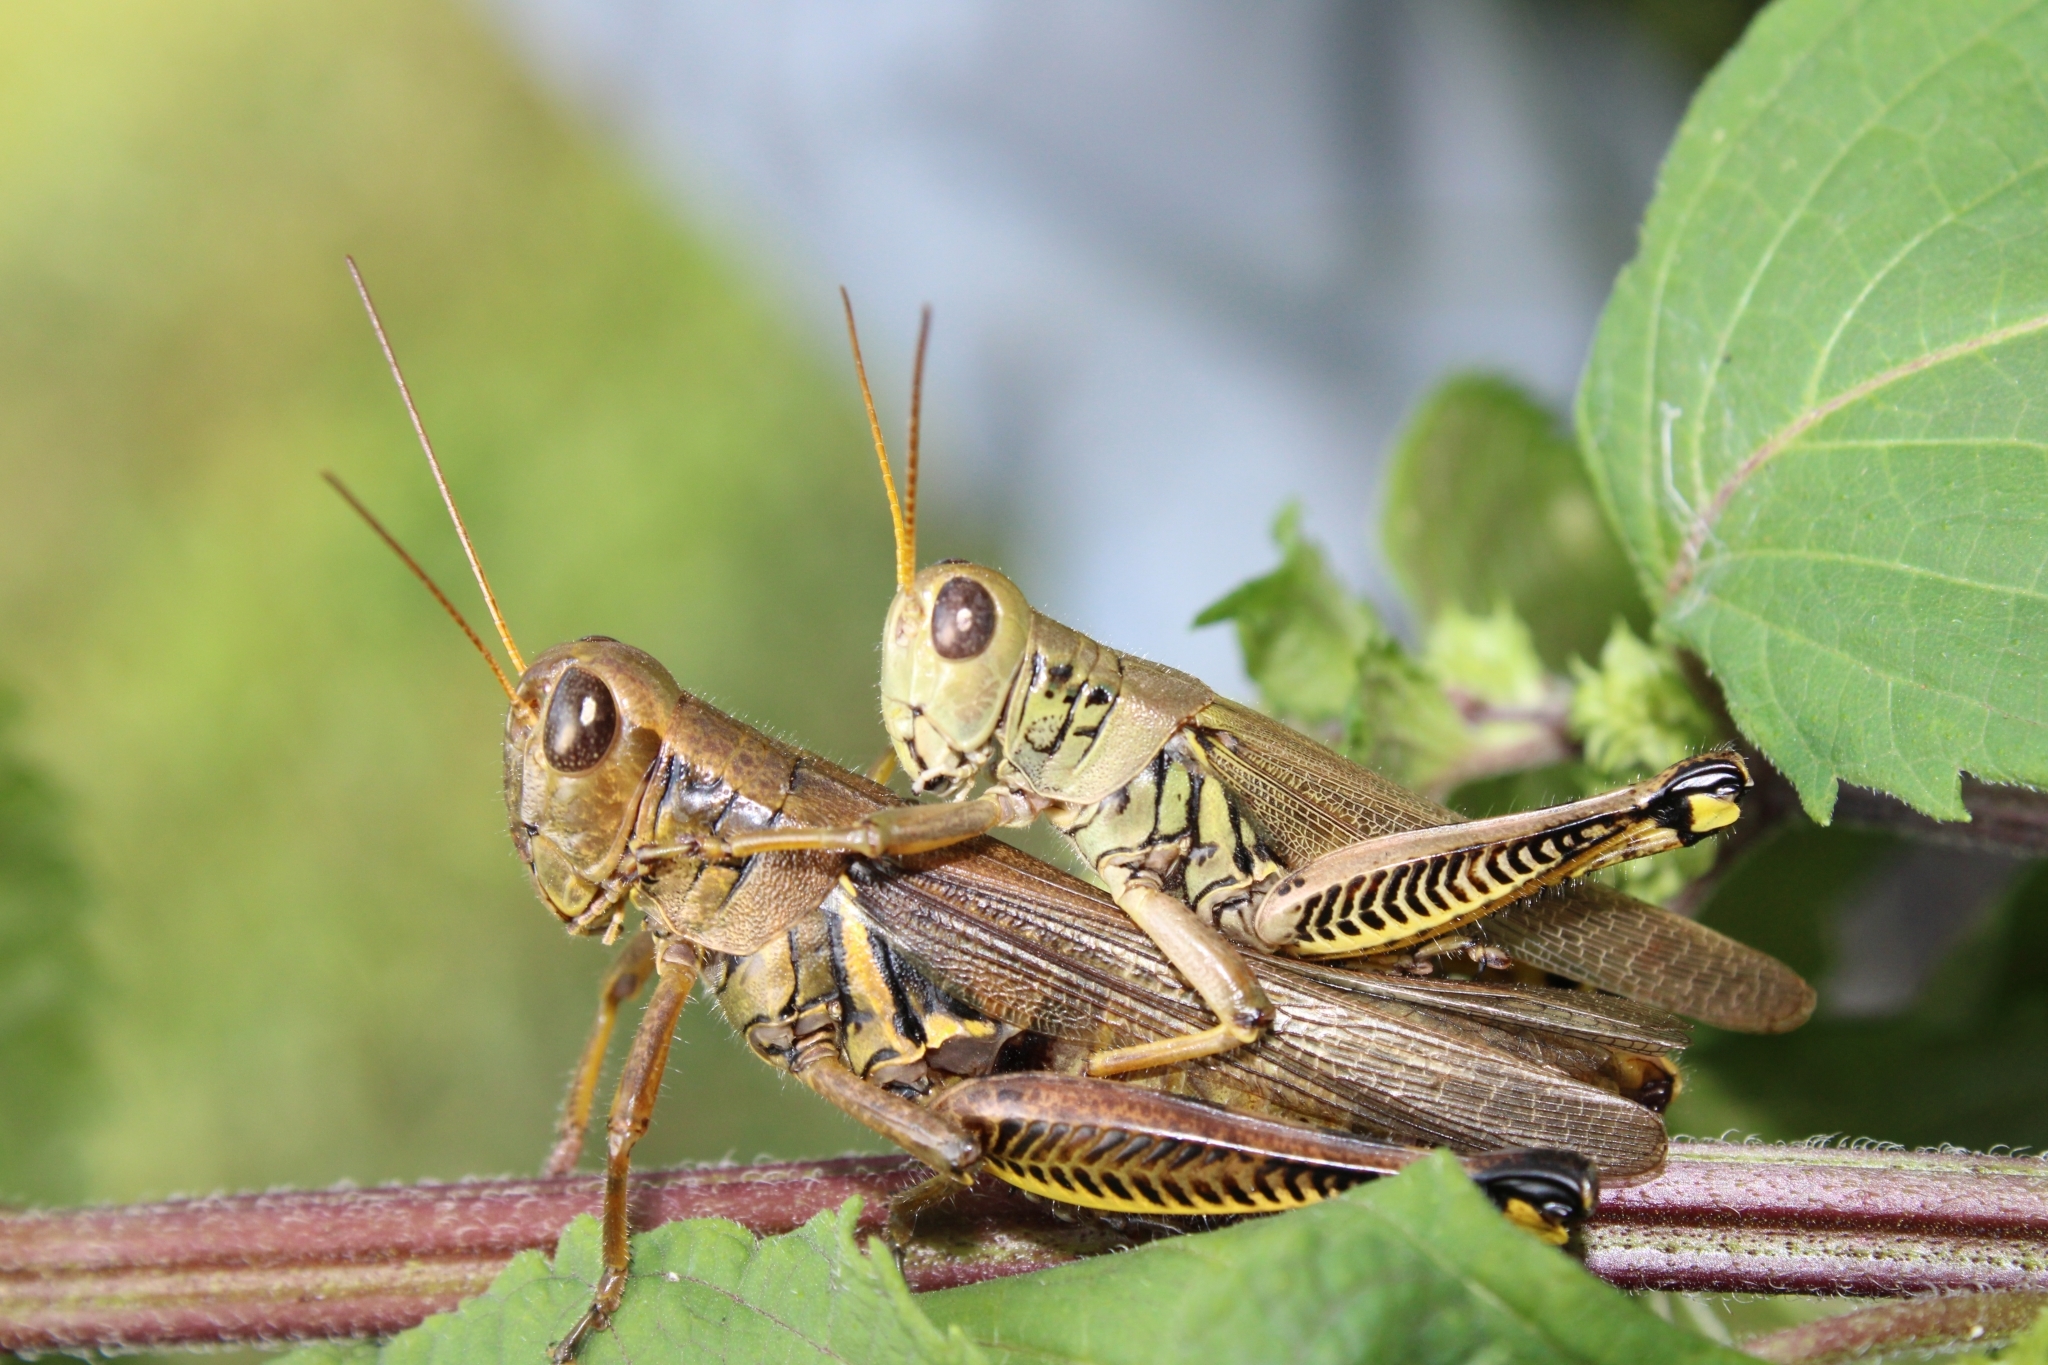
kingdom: Animalia
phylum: Arthropoda
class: Insecta
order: Orthoptera
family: Acrididae
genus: Melanoplus
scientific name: Melanoplus differentialis
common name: Differential grasshopper
